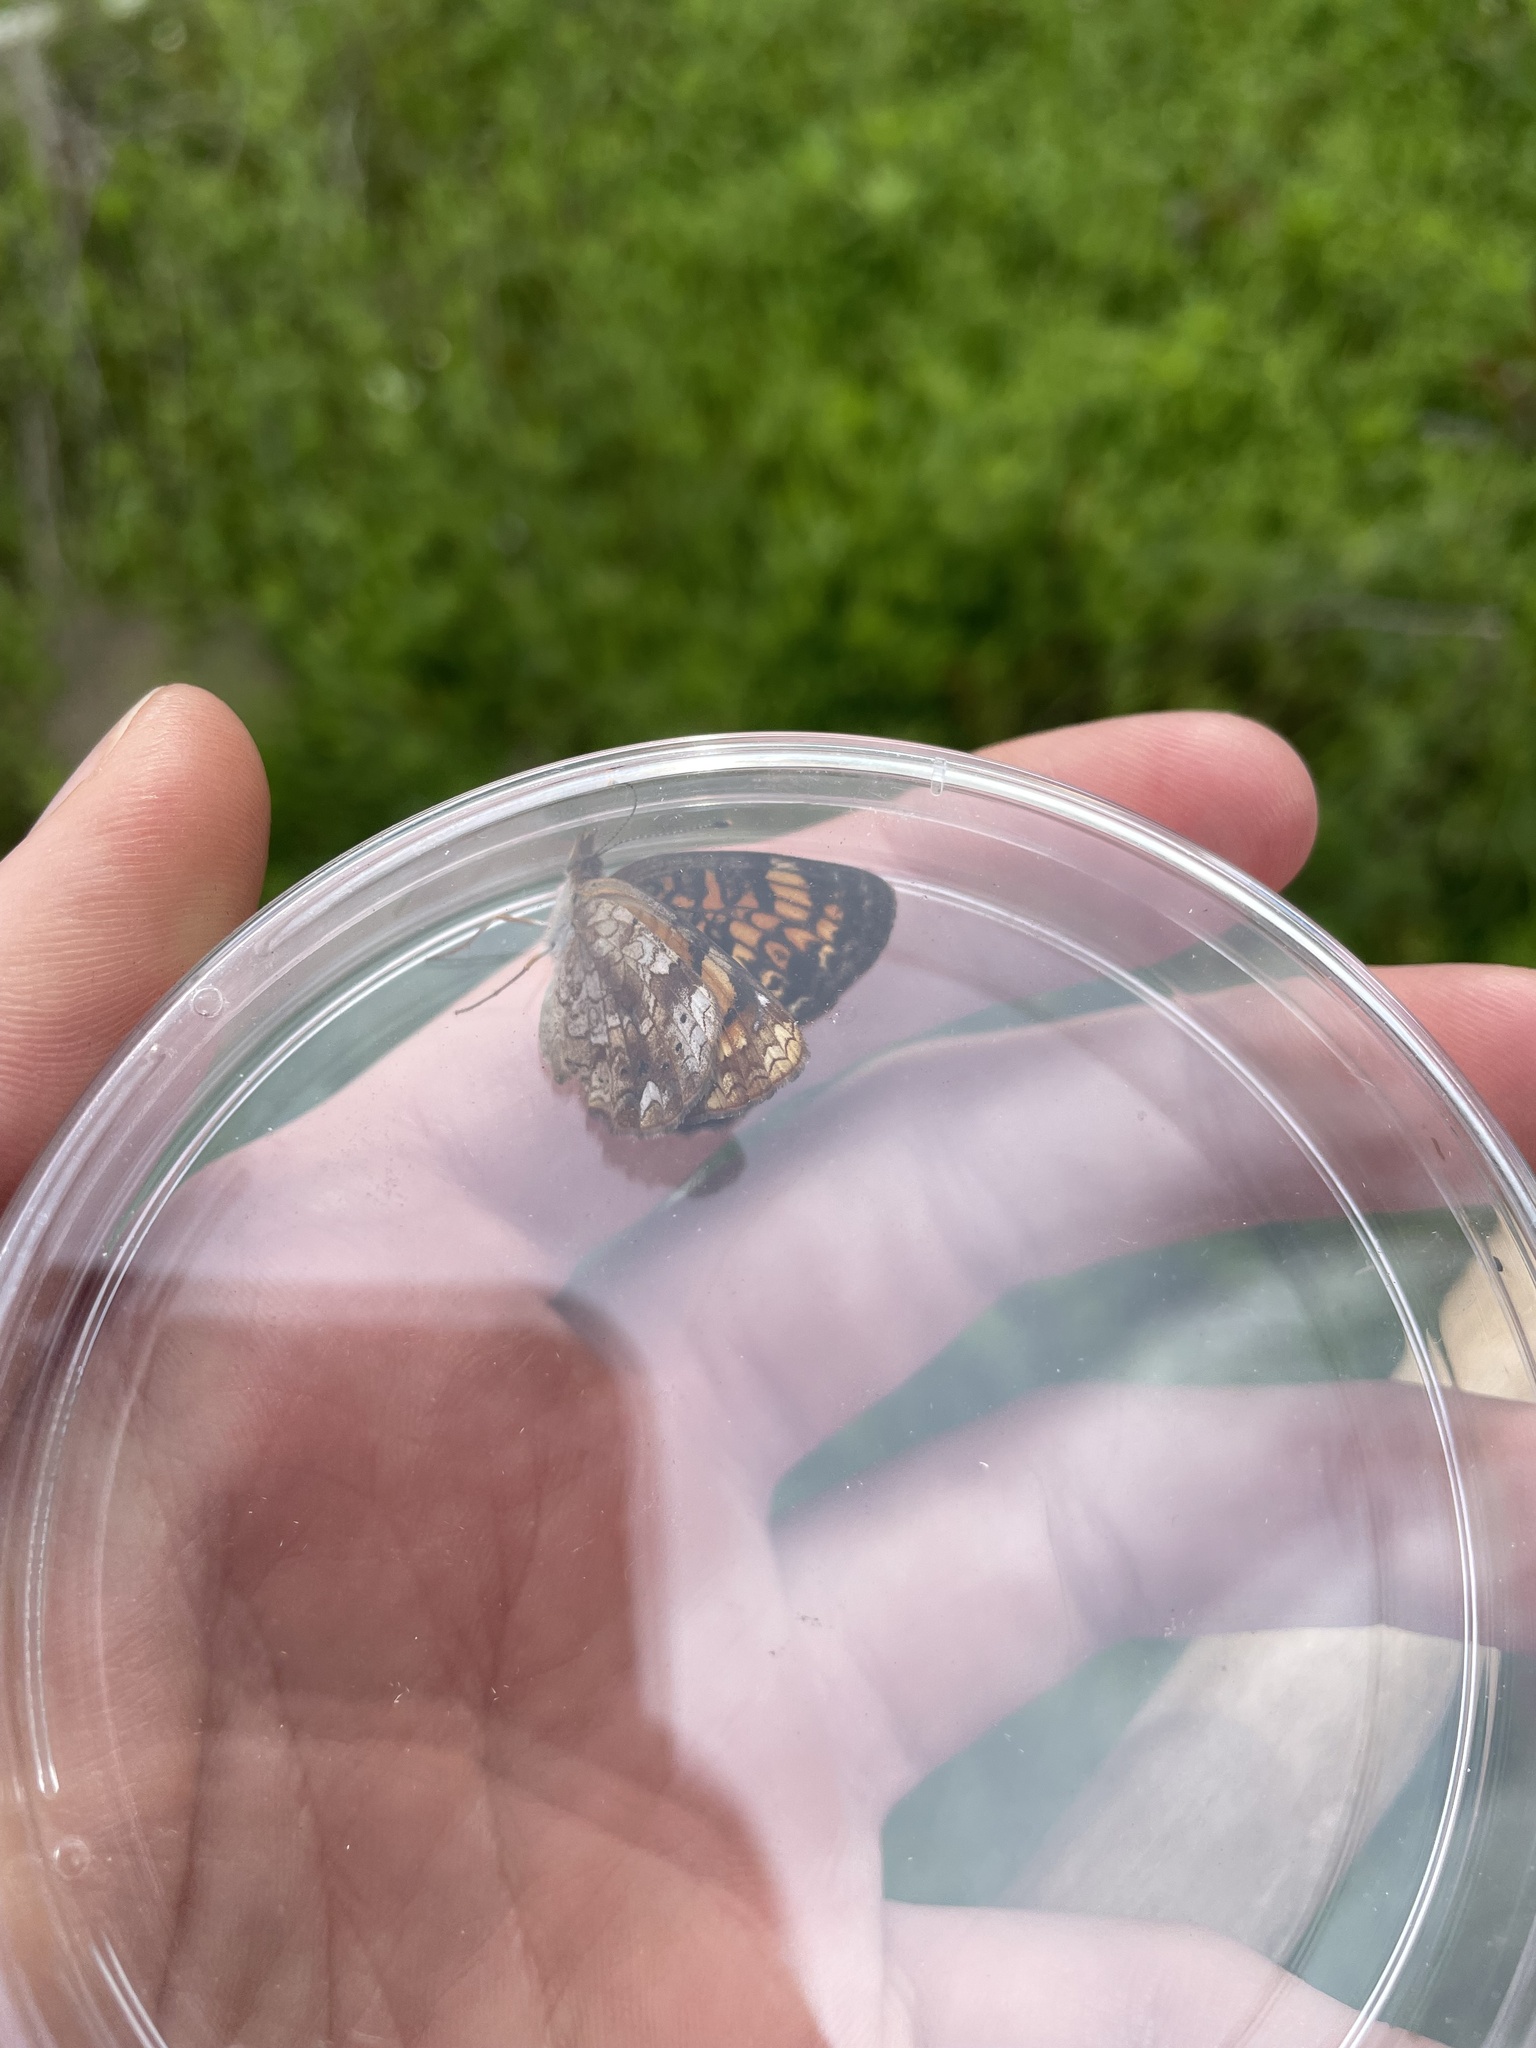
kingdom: Animalia
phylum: Arthropoda
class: Insecta
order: Lepidoptera
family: Nymphalidae
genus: Phyciodes
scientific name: Phyciodes tharos
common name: Pearl crescent
